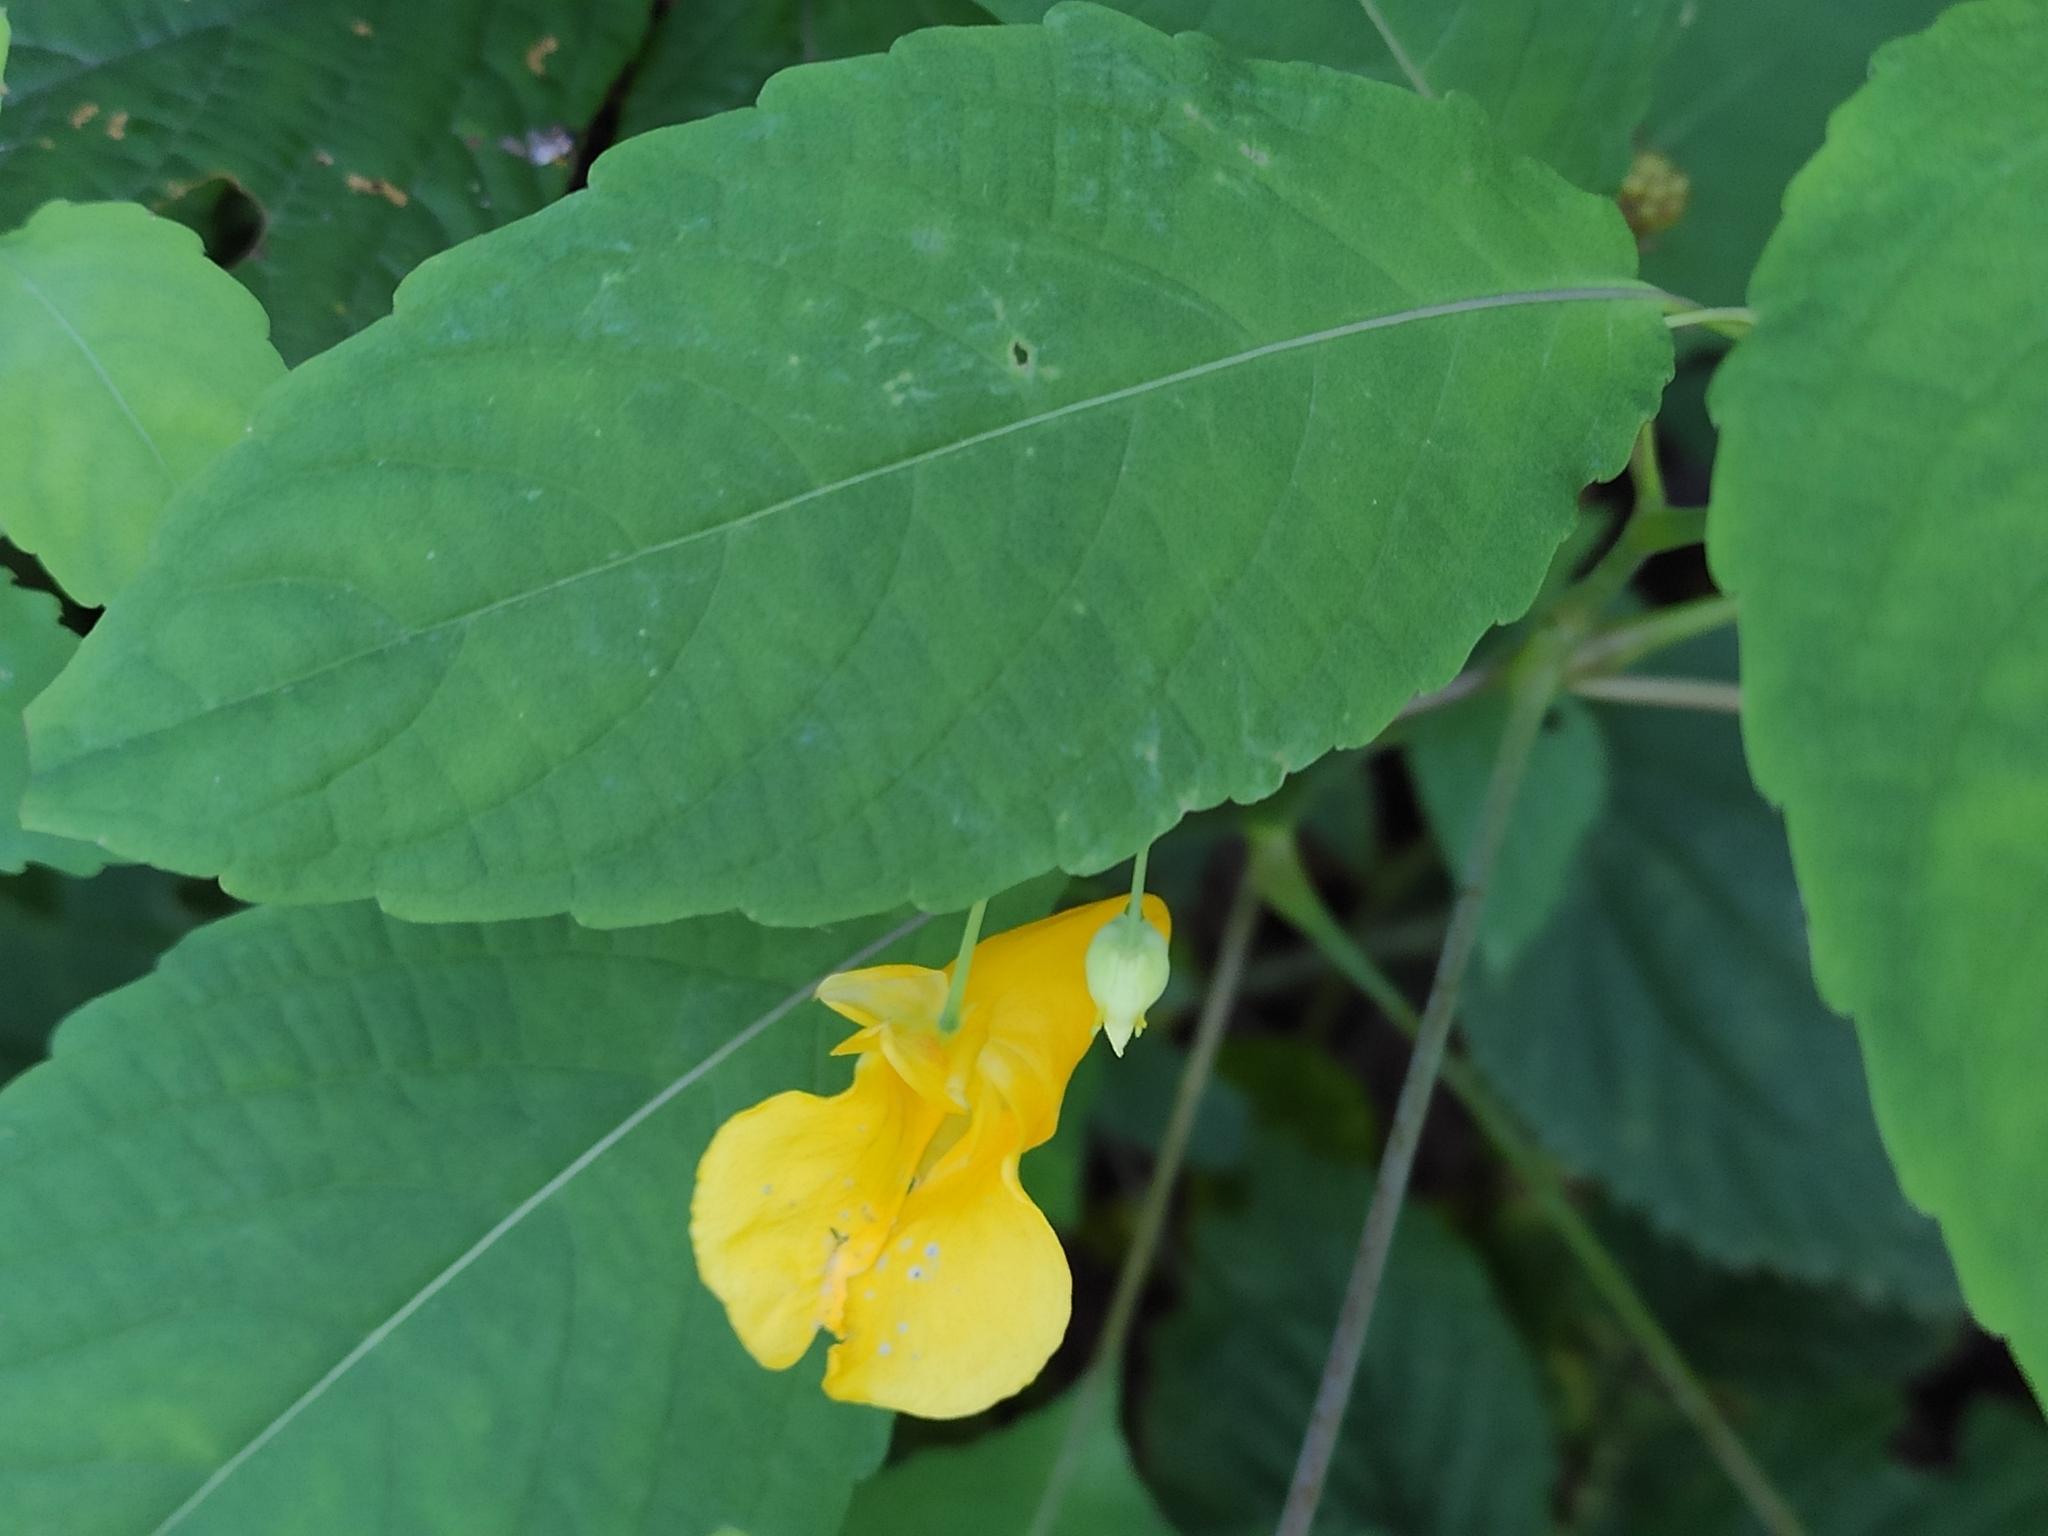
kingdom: Plantae
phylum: Tracheophyta
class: Magnoliopsida
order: Ericales
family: Balsaminaceae
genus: Impatiens
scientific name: Impatiens noli-tangere
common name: Touch-me-not balsam
